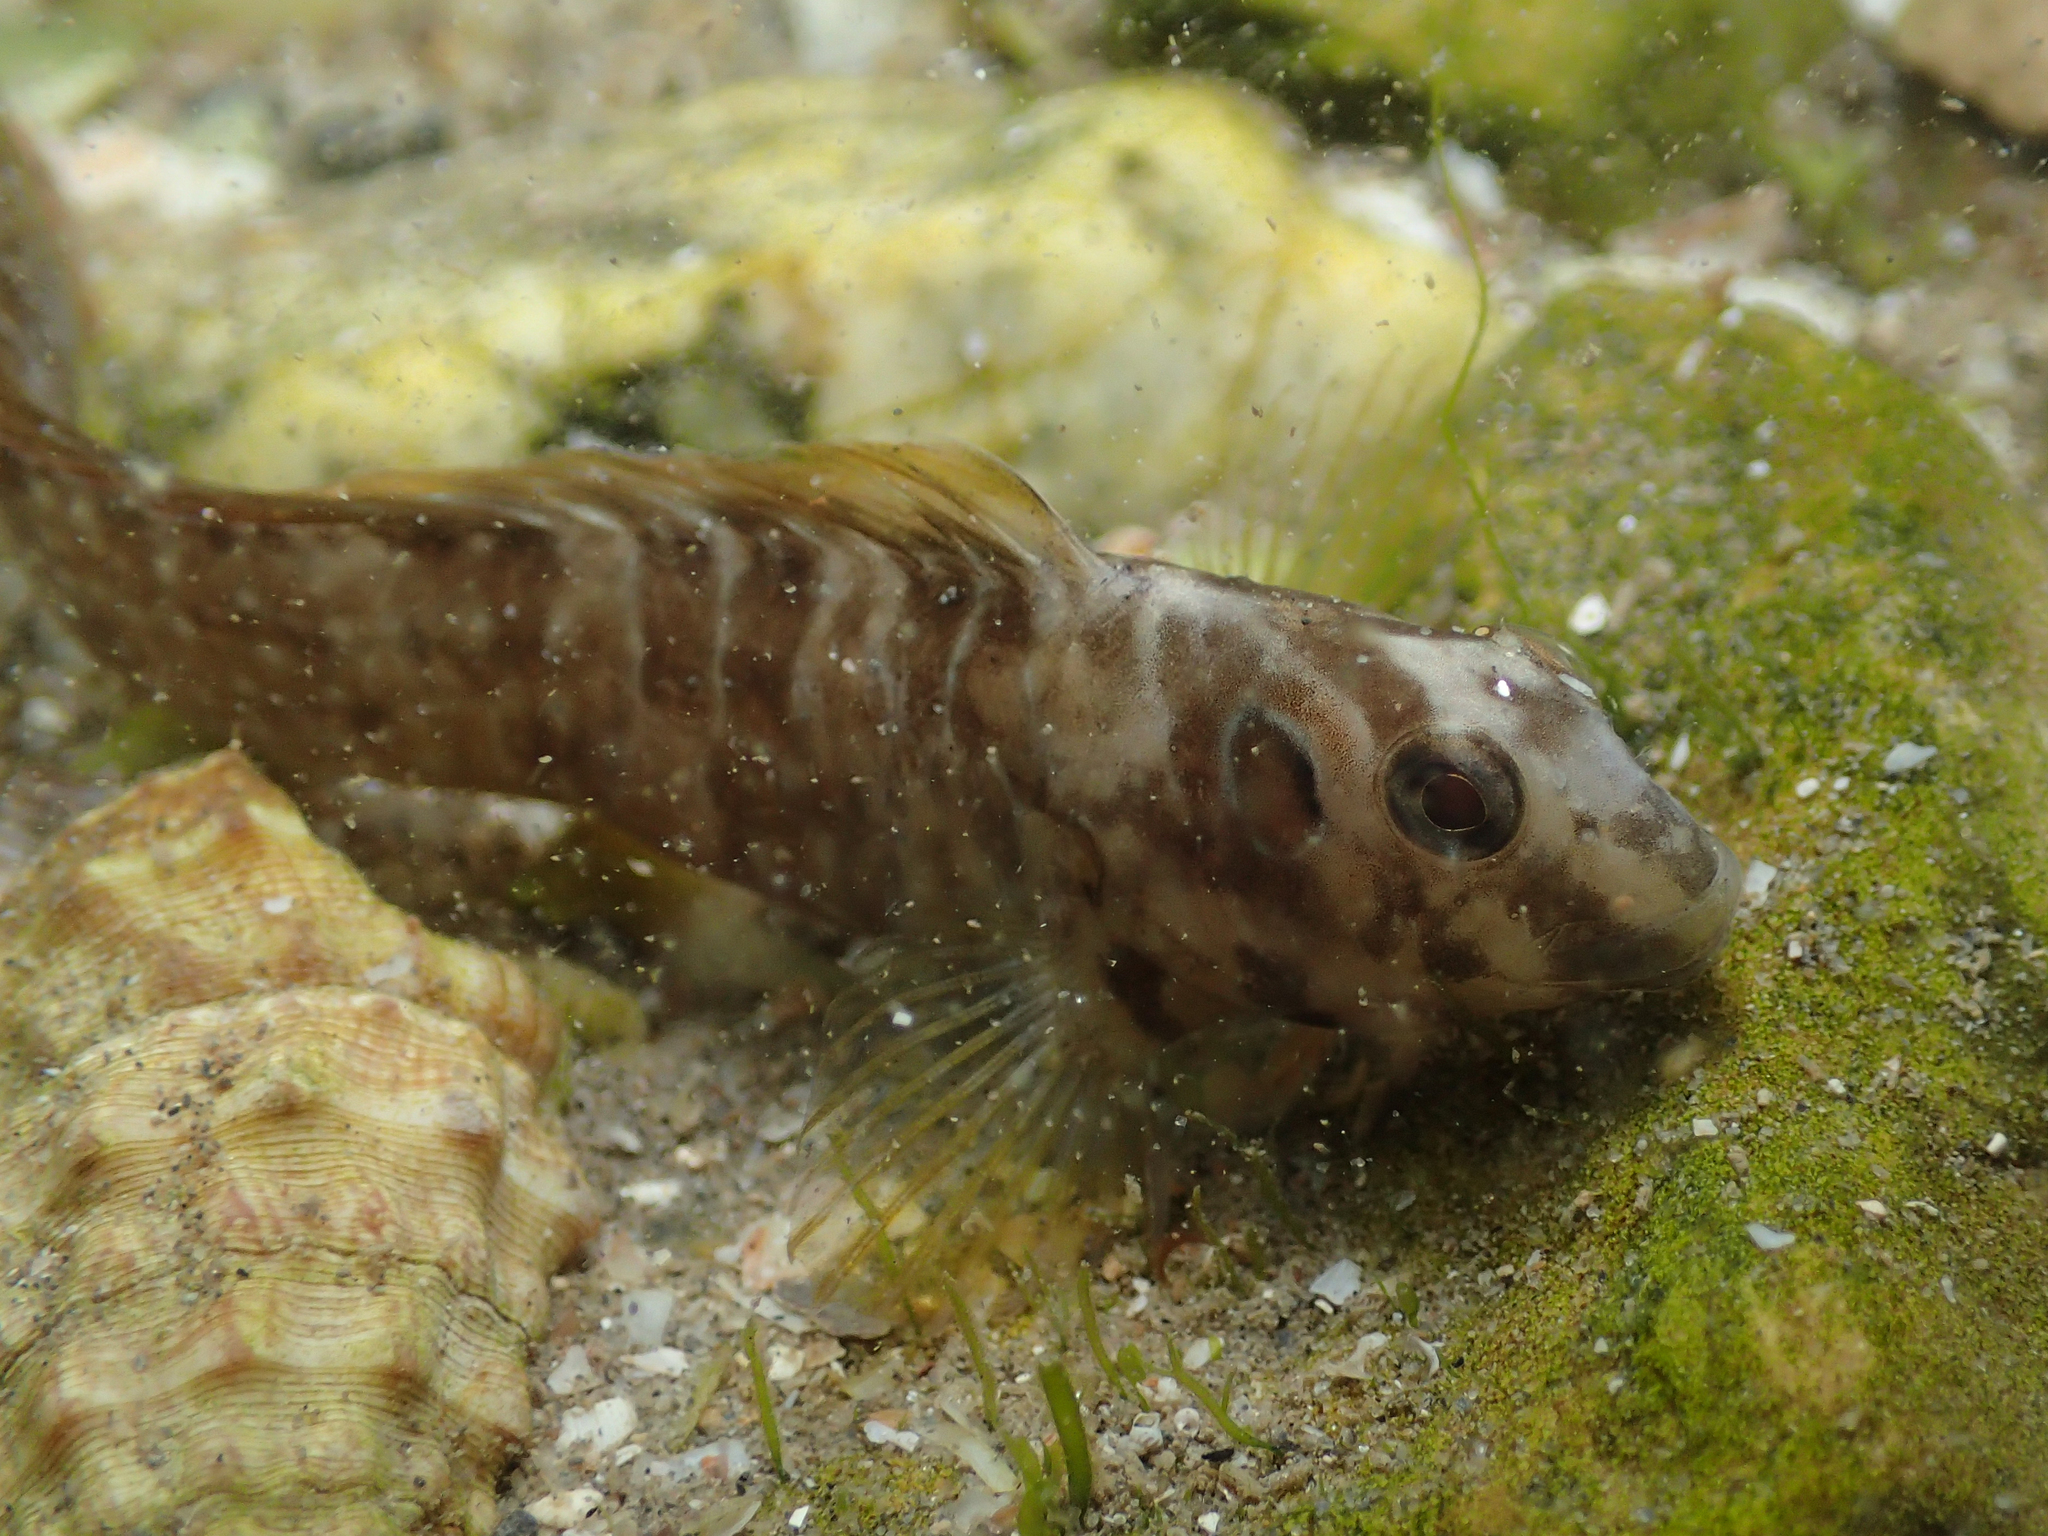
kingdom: Animalia
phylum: Chordata
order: Perciformes
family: Blenniidae
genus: Salaria
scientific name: Salaria pavo
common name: Peacock blenny
